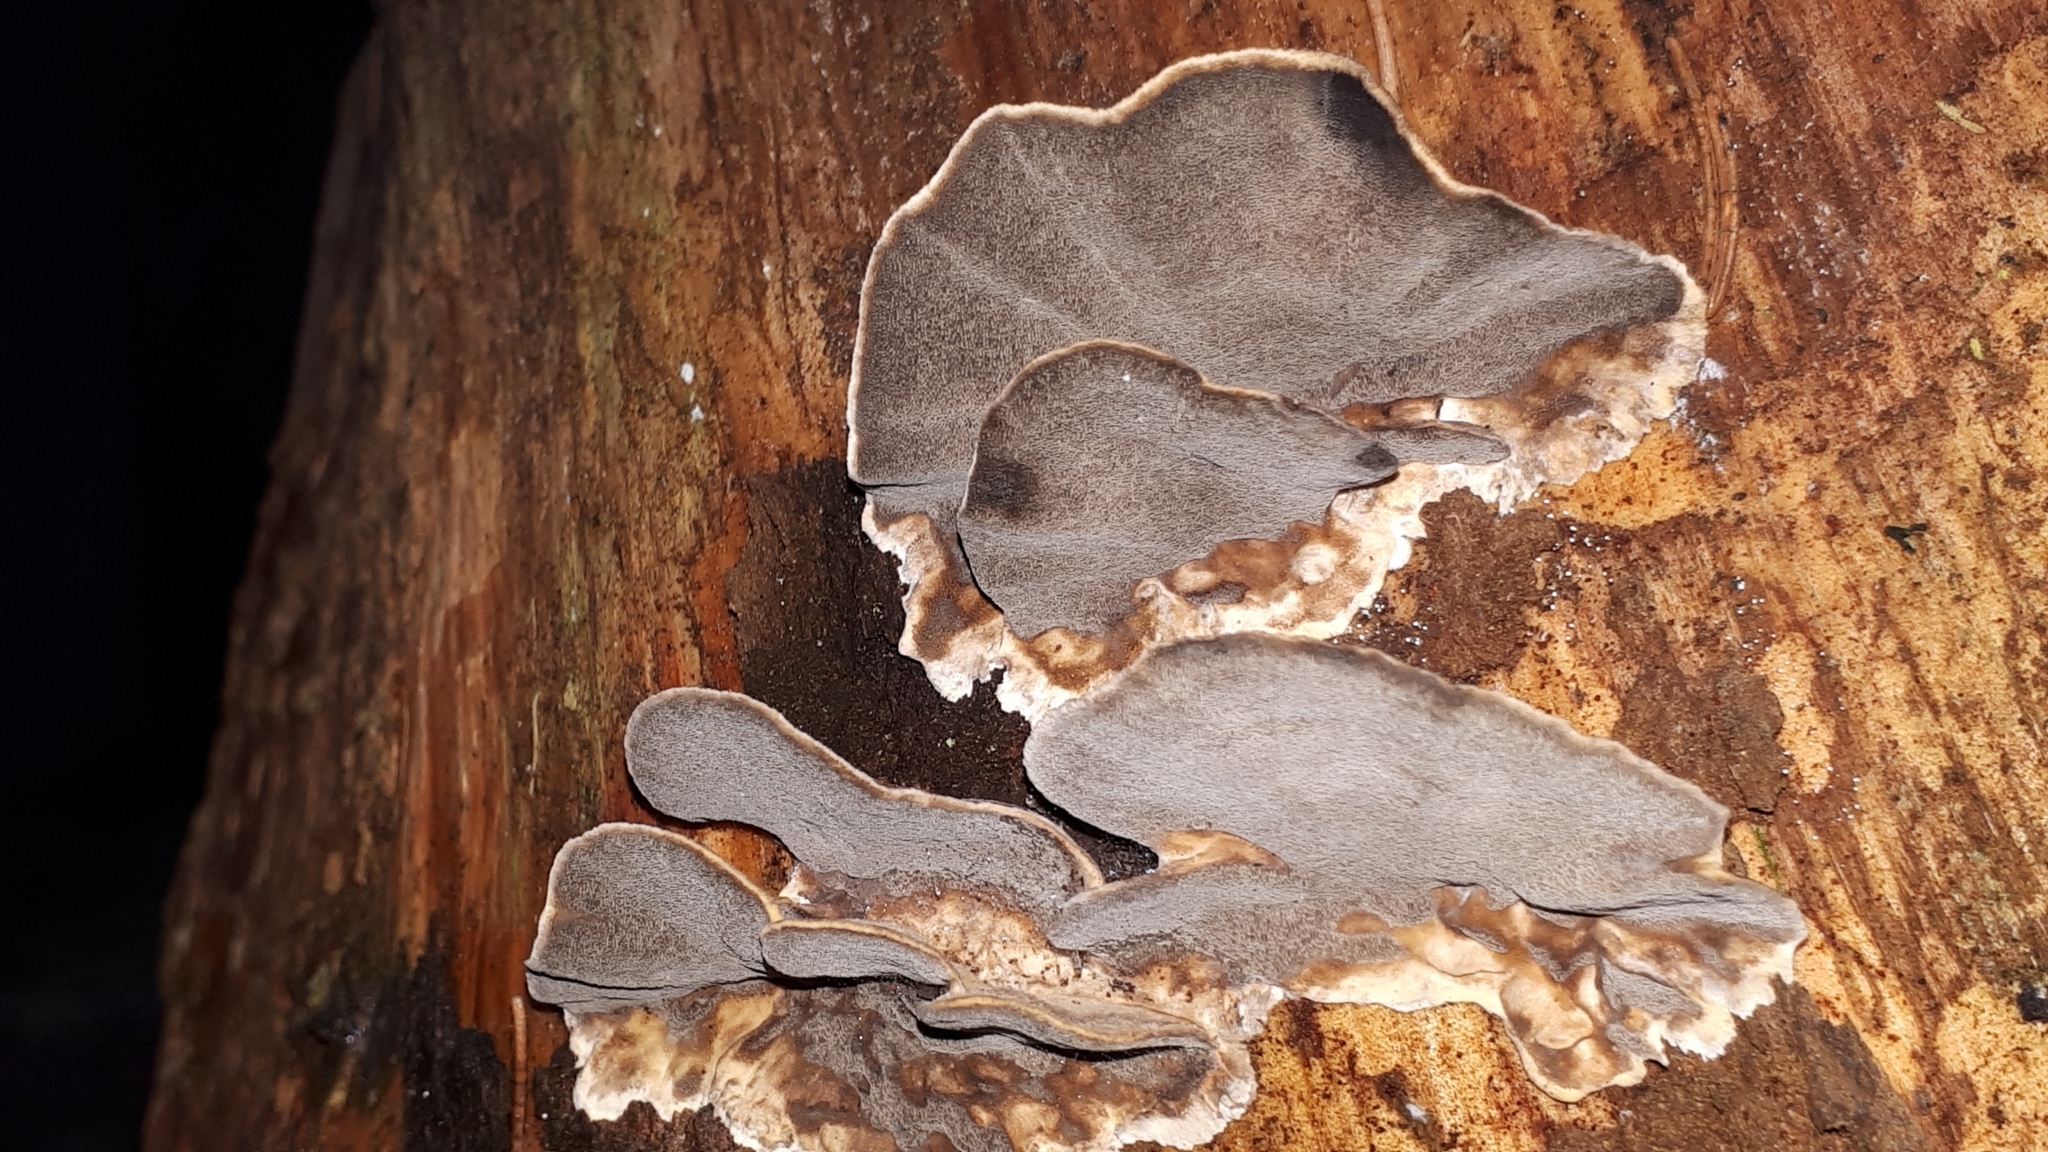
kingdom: Fungi
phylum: Basidiomycota
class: Agaricomycetes
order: Polyporales
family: Phanerochaetaceae
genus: Bjerkandera
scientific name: Bjerkandera adusta
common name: Smoky bracket
